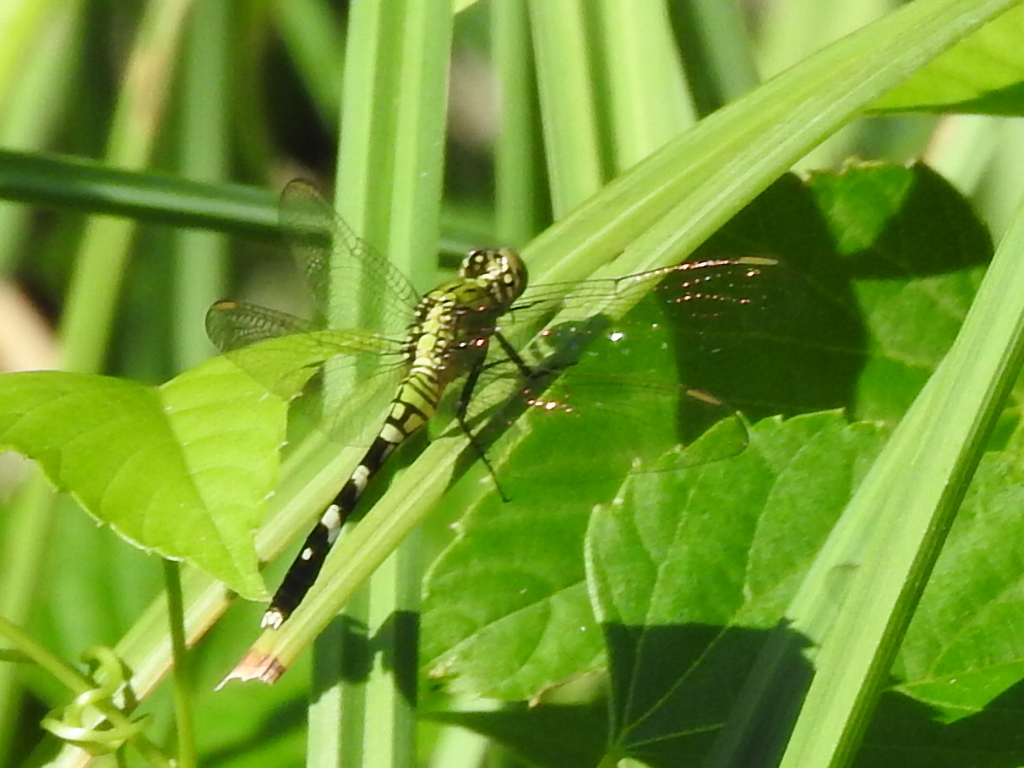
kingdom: Animalia
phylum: Arthropoda
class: Insecta
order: Odonata
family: Libellulidae
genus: Erythemis
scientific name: Erythemis simplicicollis
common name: Eastern pondhawk
